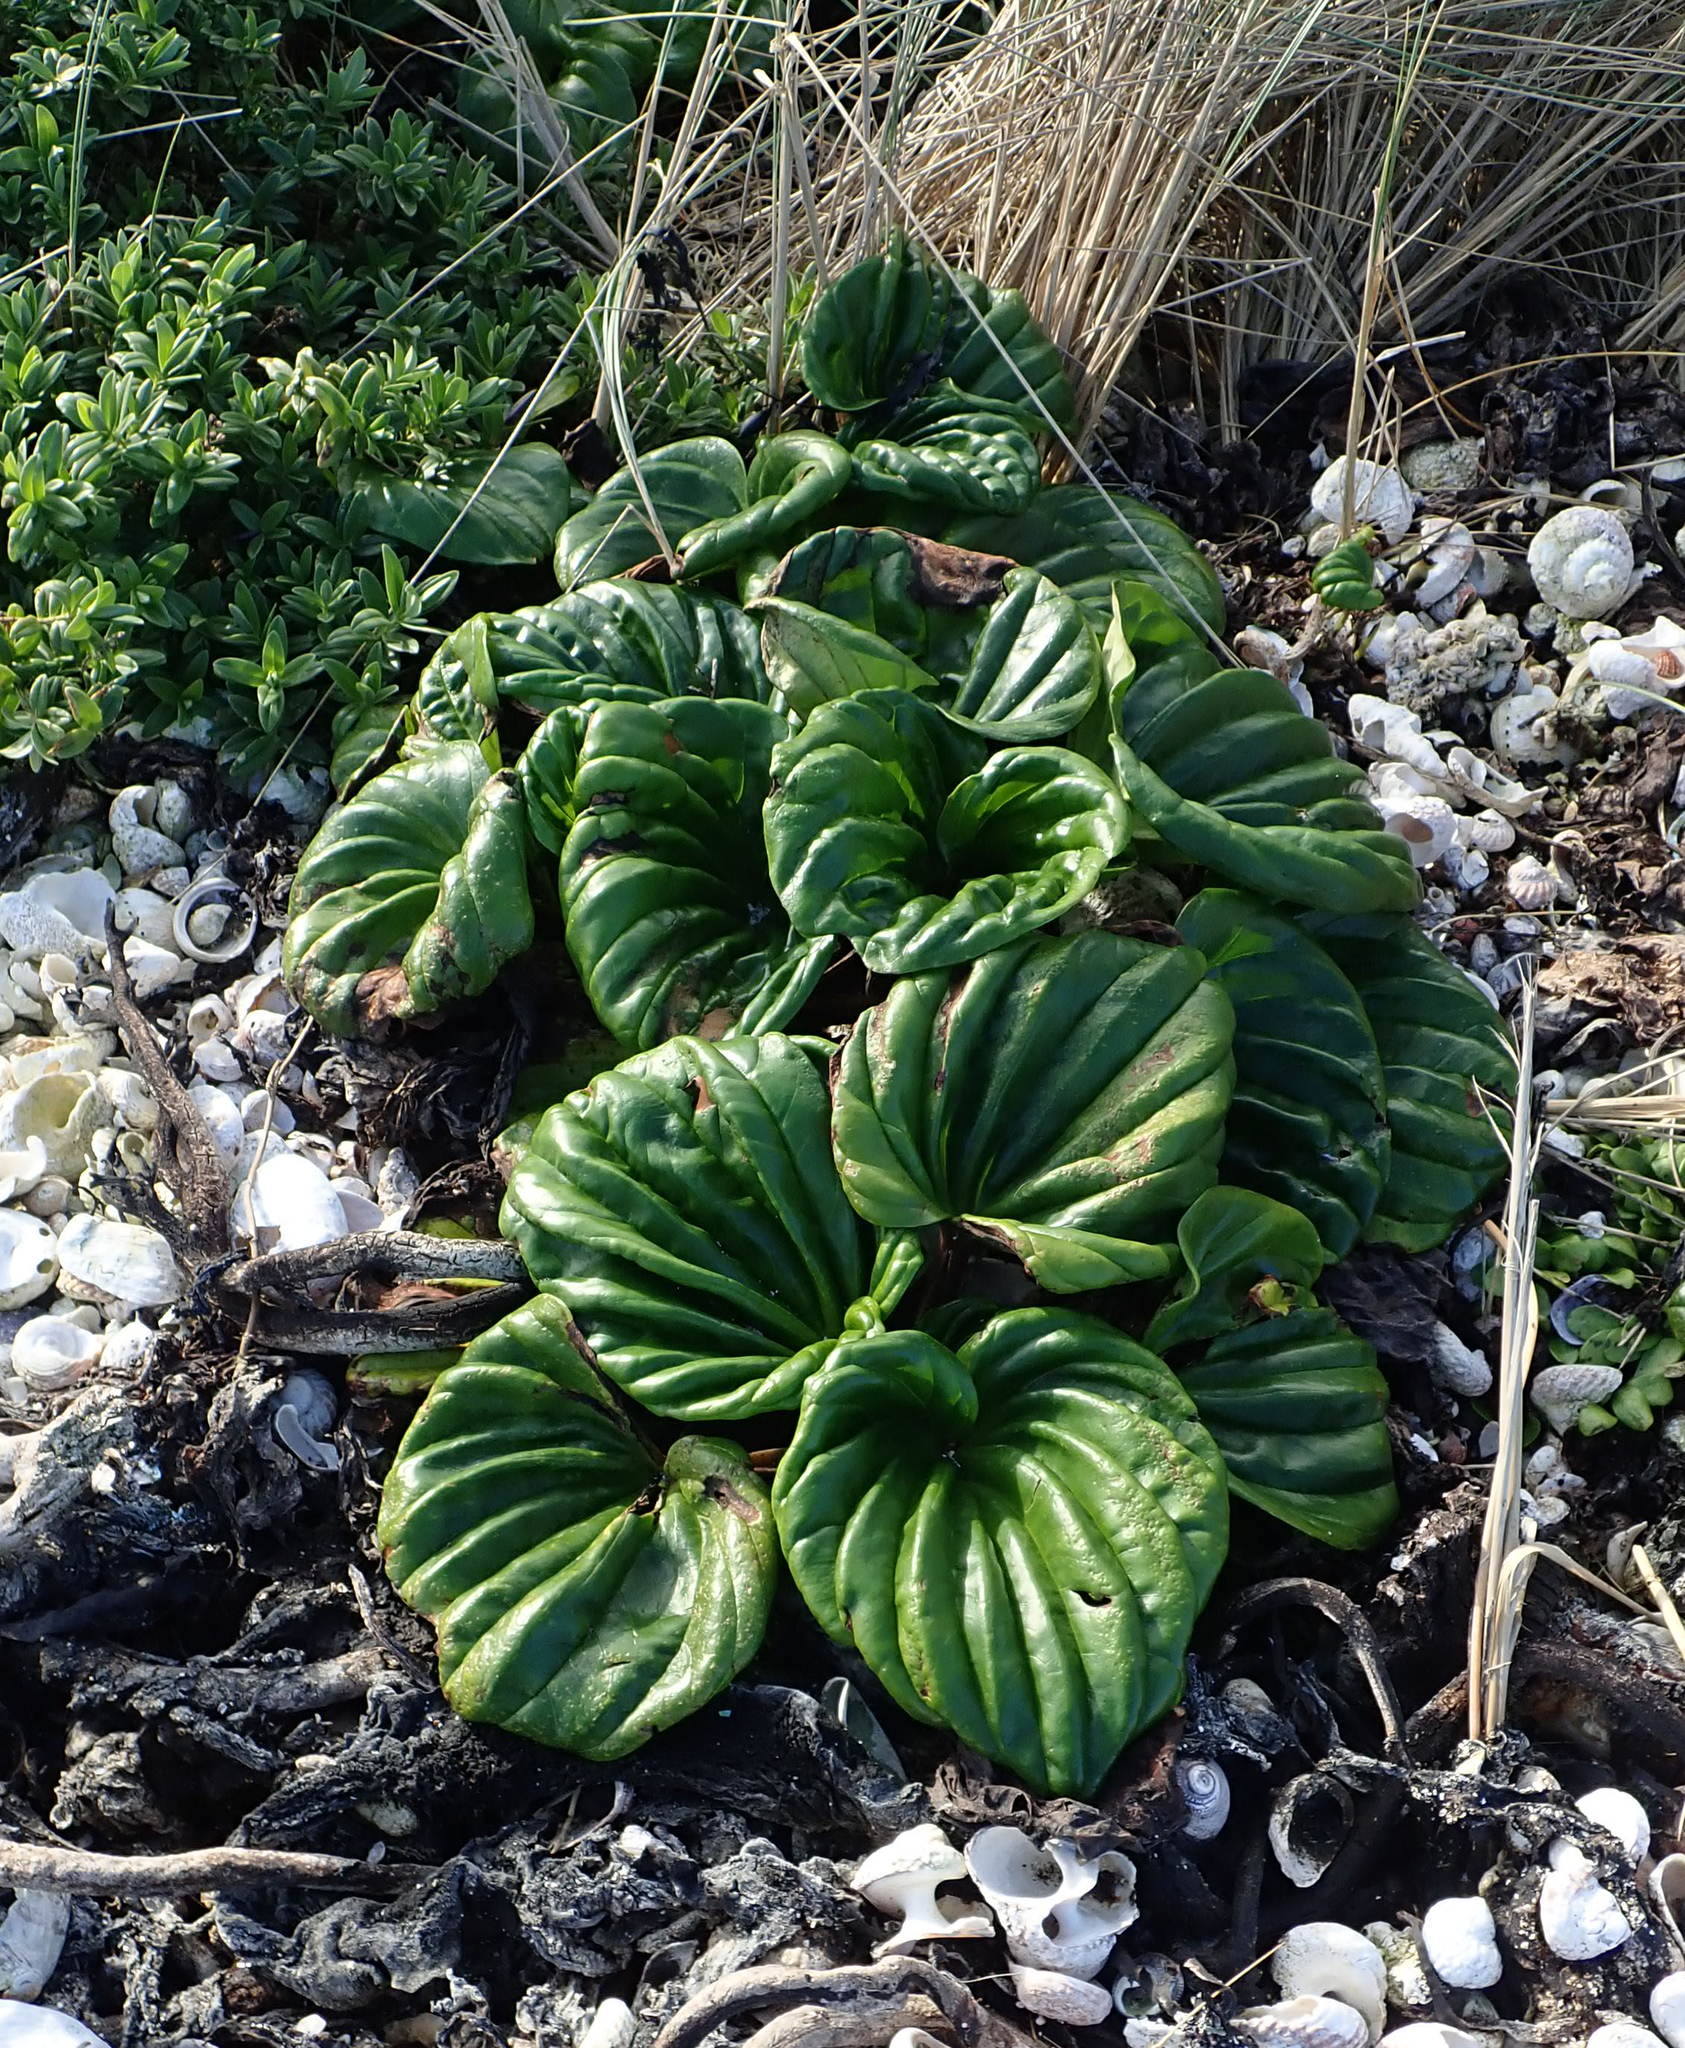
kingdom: Plantae
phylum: Tracheophyta
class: Magnoliopsida
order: Boraginales
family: Boraginaceae
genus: Myosotidium
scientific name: Myosotidium hortensia
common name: Giant forget-me-not
